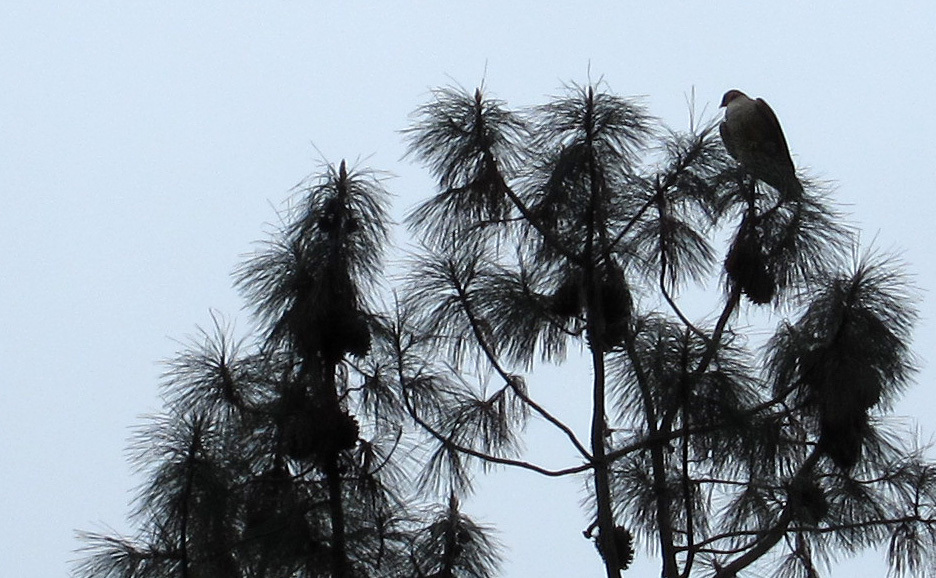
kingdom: Animalia
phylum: Chordata
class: Aves
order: Accipitriformes
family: Accipitridae
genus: Buteo
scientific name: Buteo jamaicensis
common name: Red-tailed hawk
